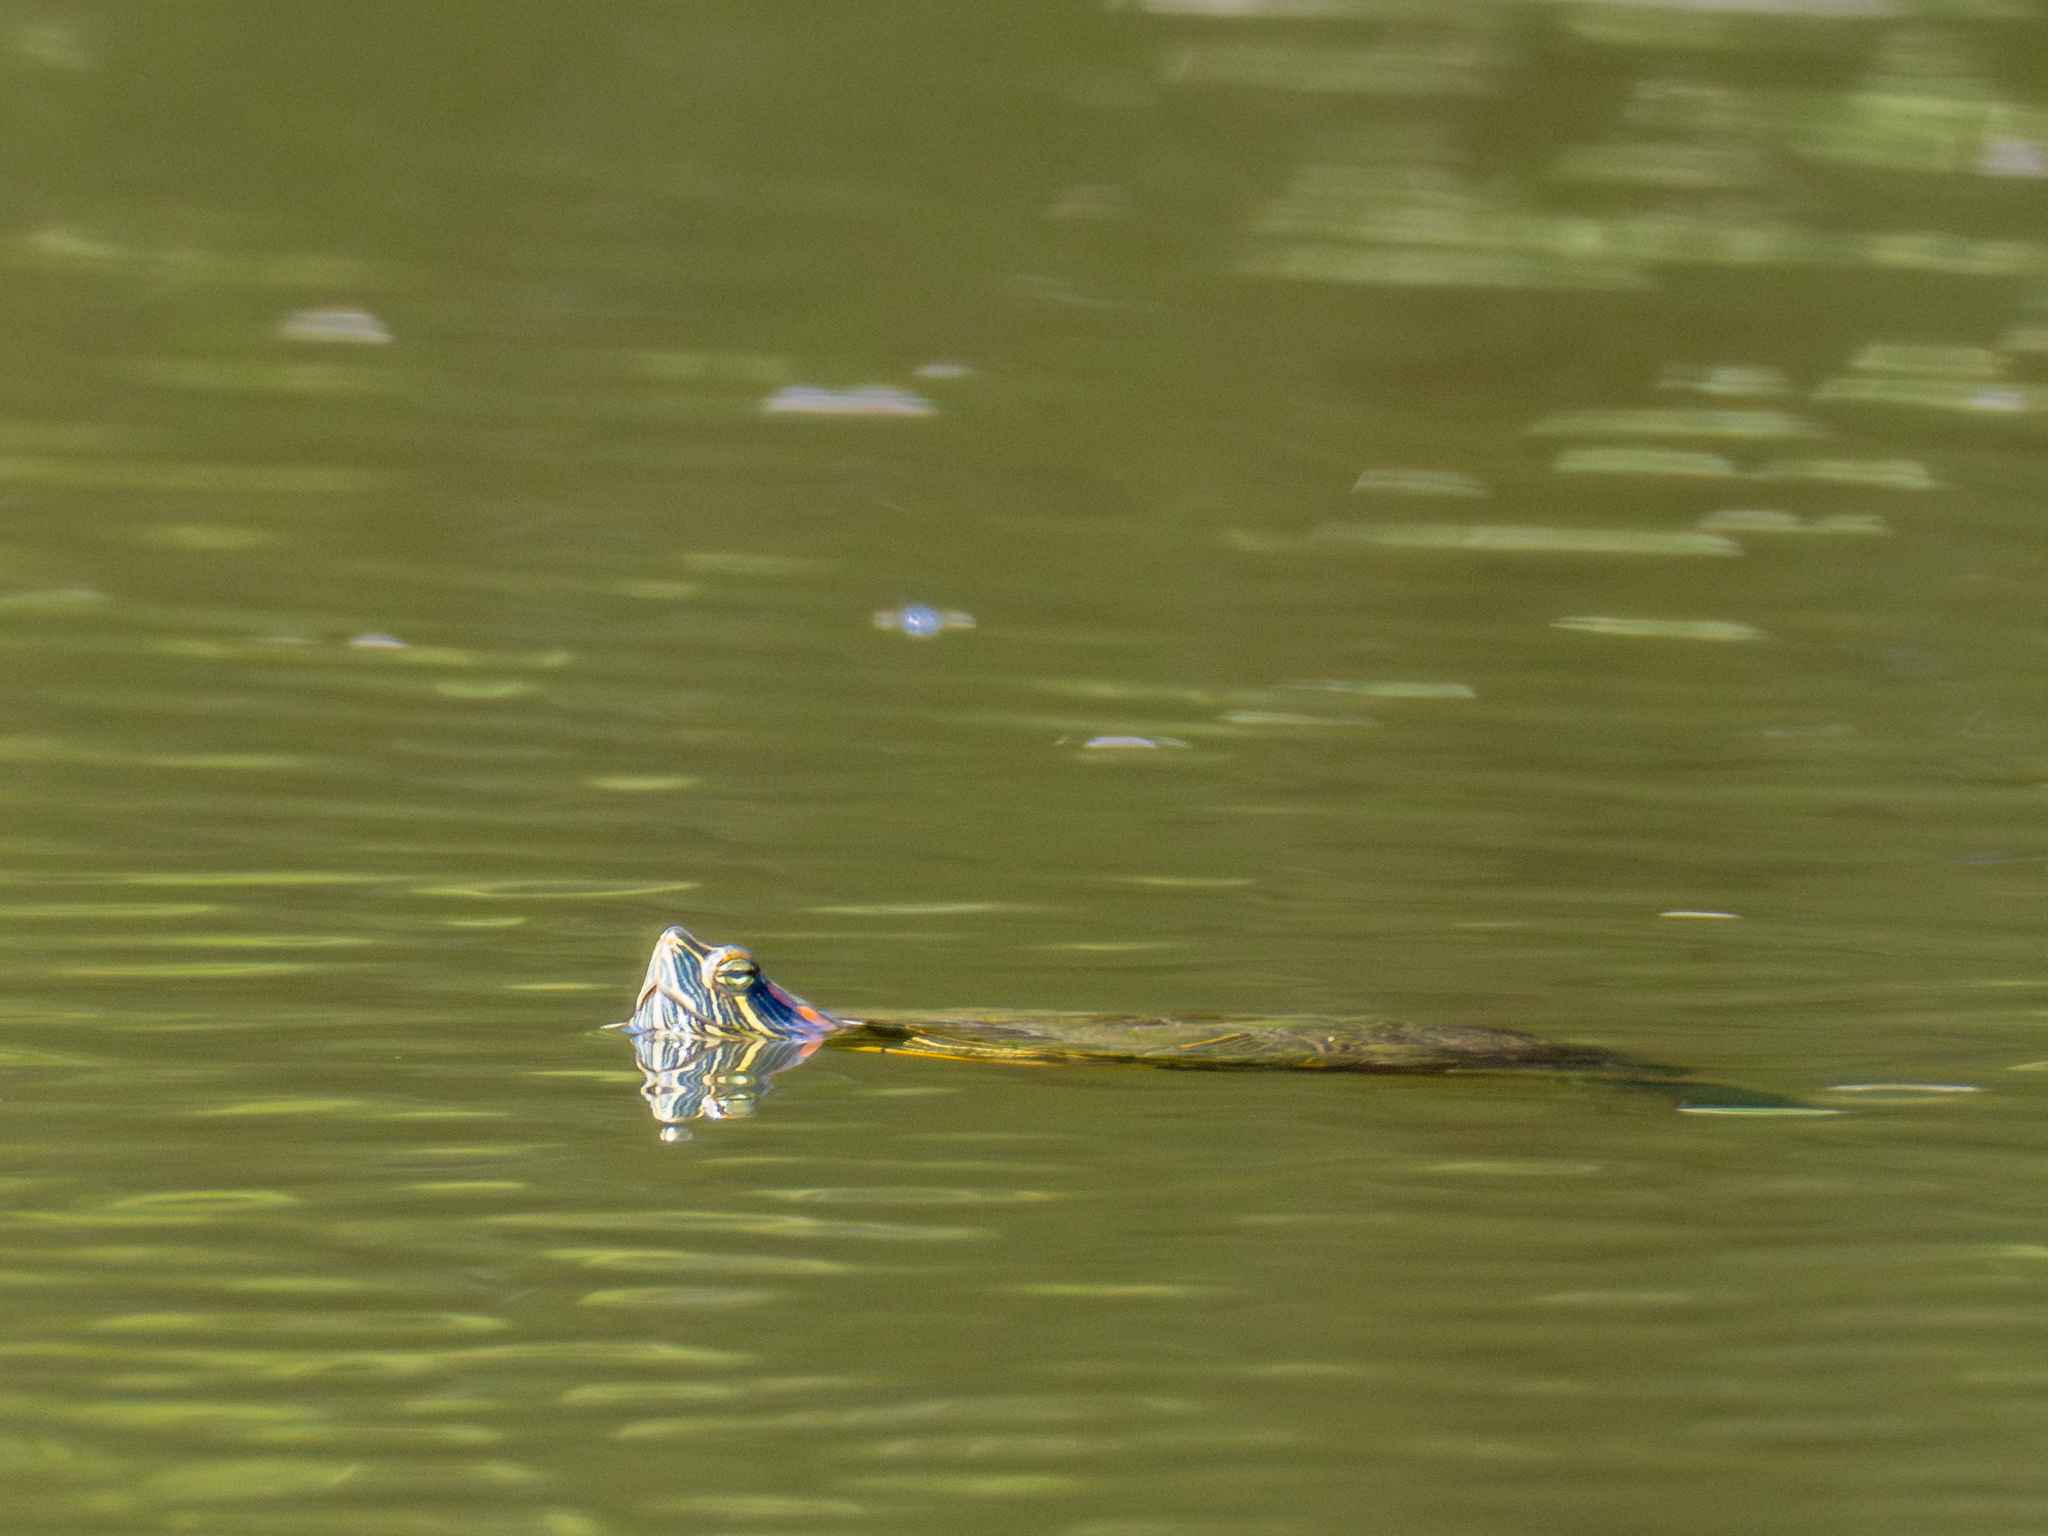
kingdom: Animalia
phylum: Chordata
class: Testudines
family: Emydidae
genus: Trachemys
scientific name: Trachemys scripta
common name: Slider
